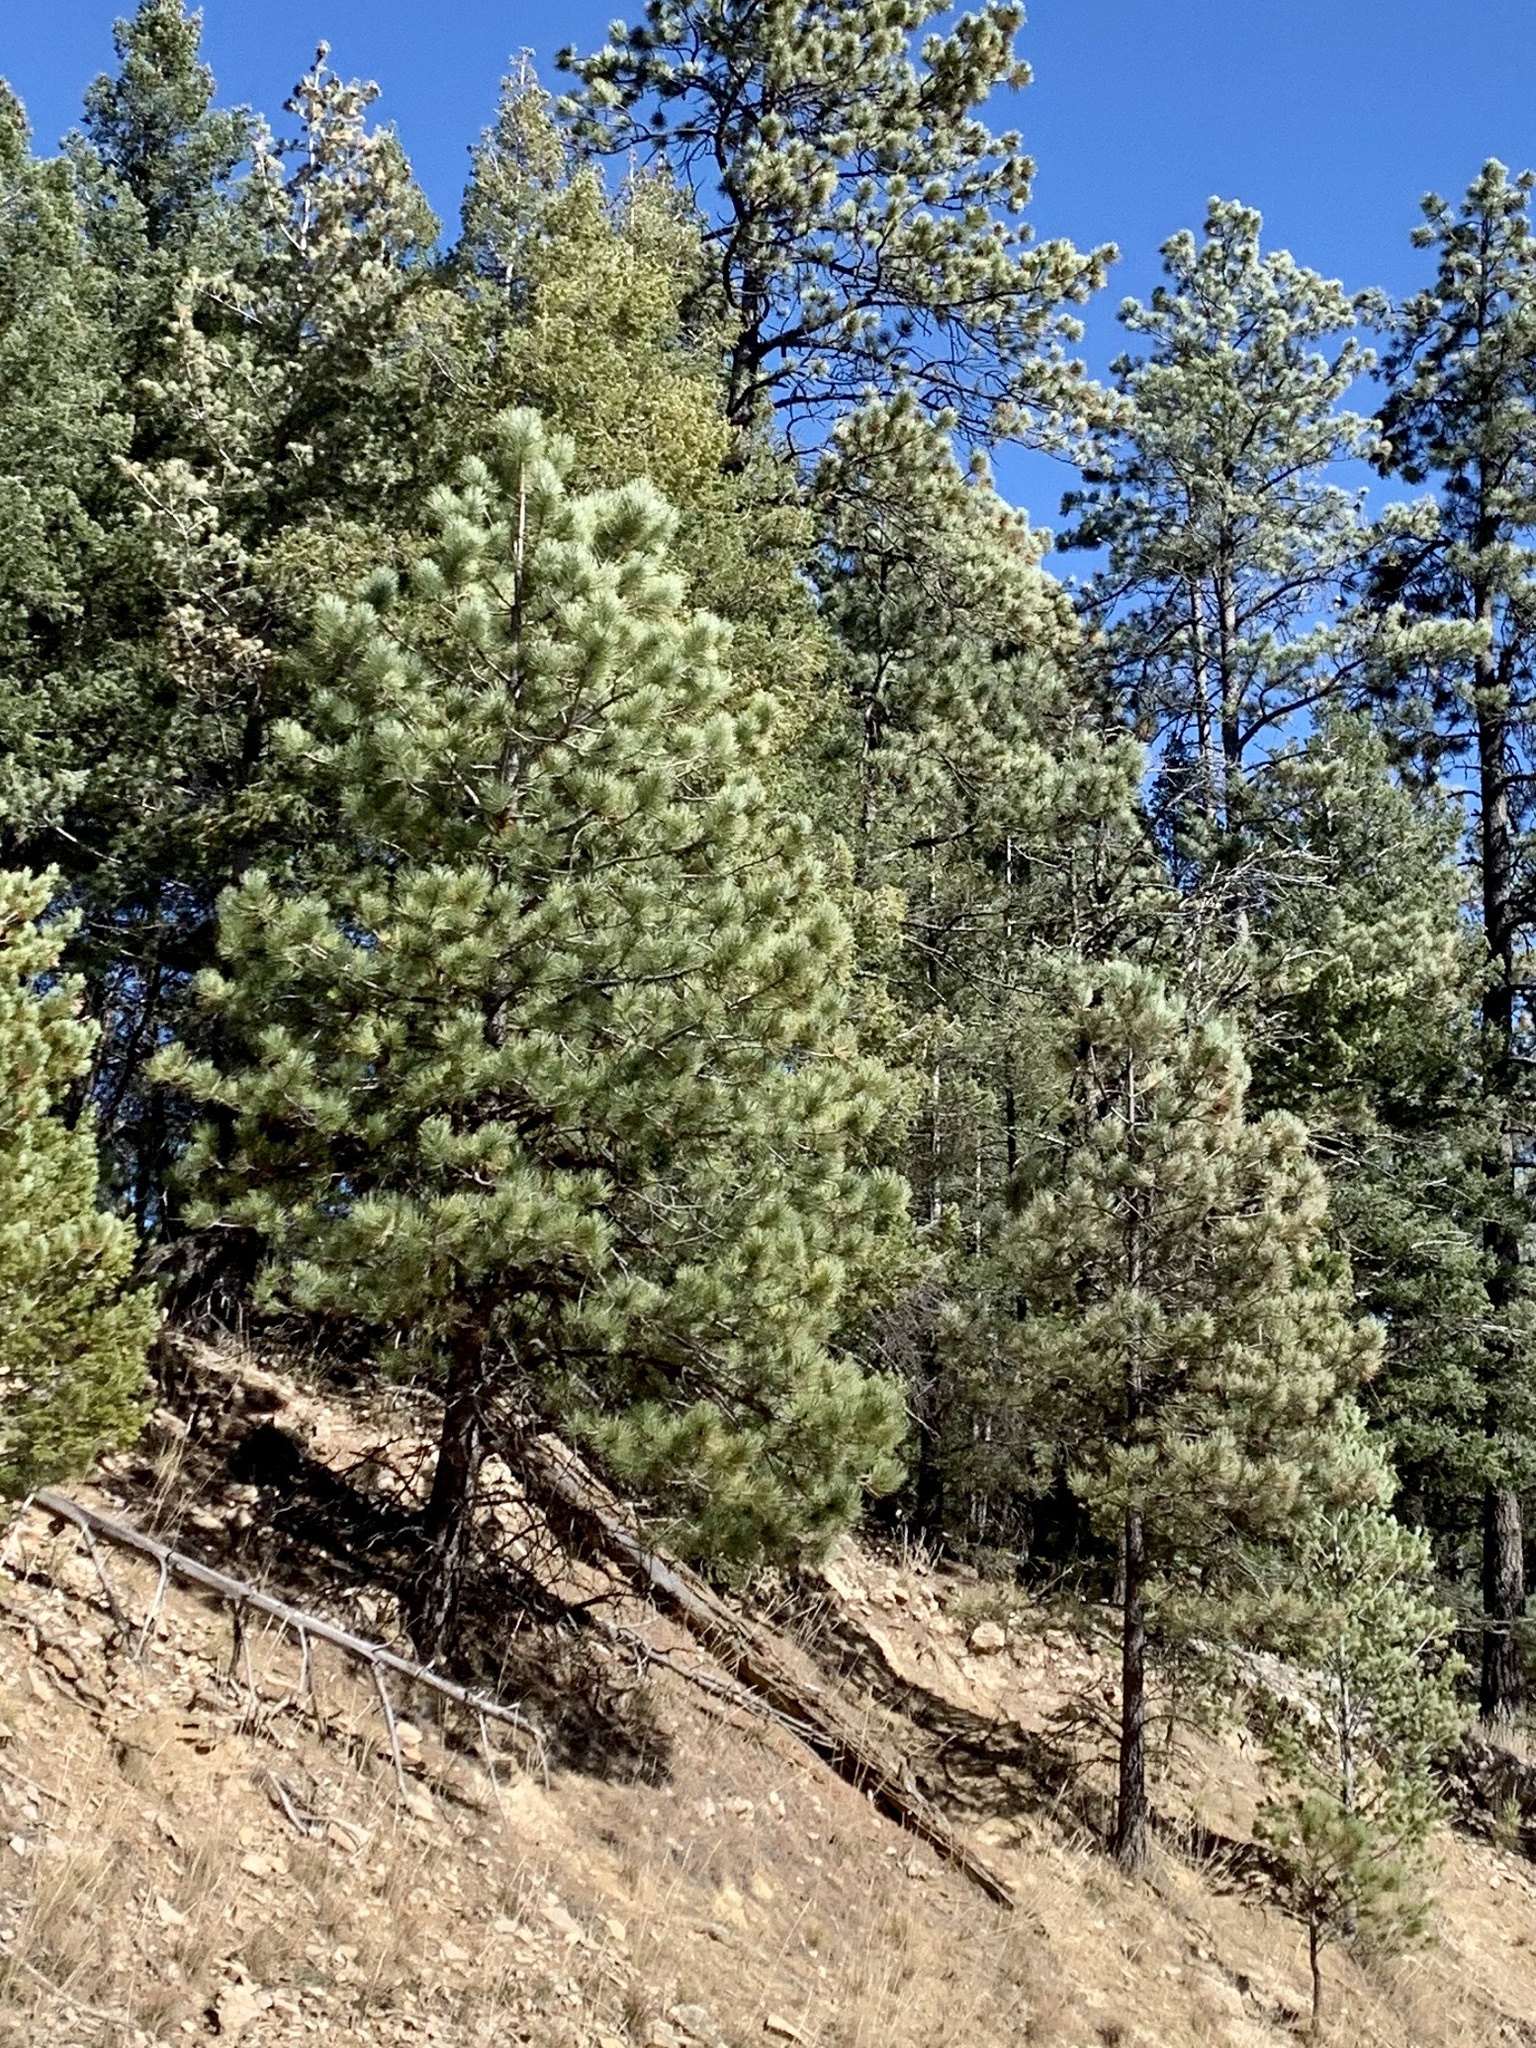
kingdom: Plantae
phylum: Tracheophyta
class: Pinopsida
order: Pinales
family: Pinaceae
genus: Pinus
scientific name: Pinus ponderosa
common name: Western yellow-pine
